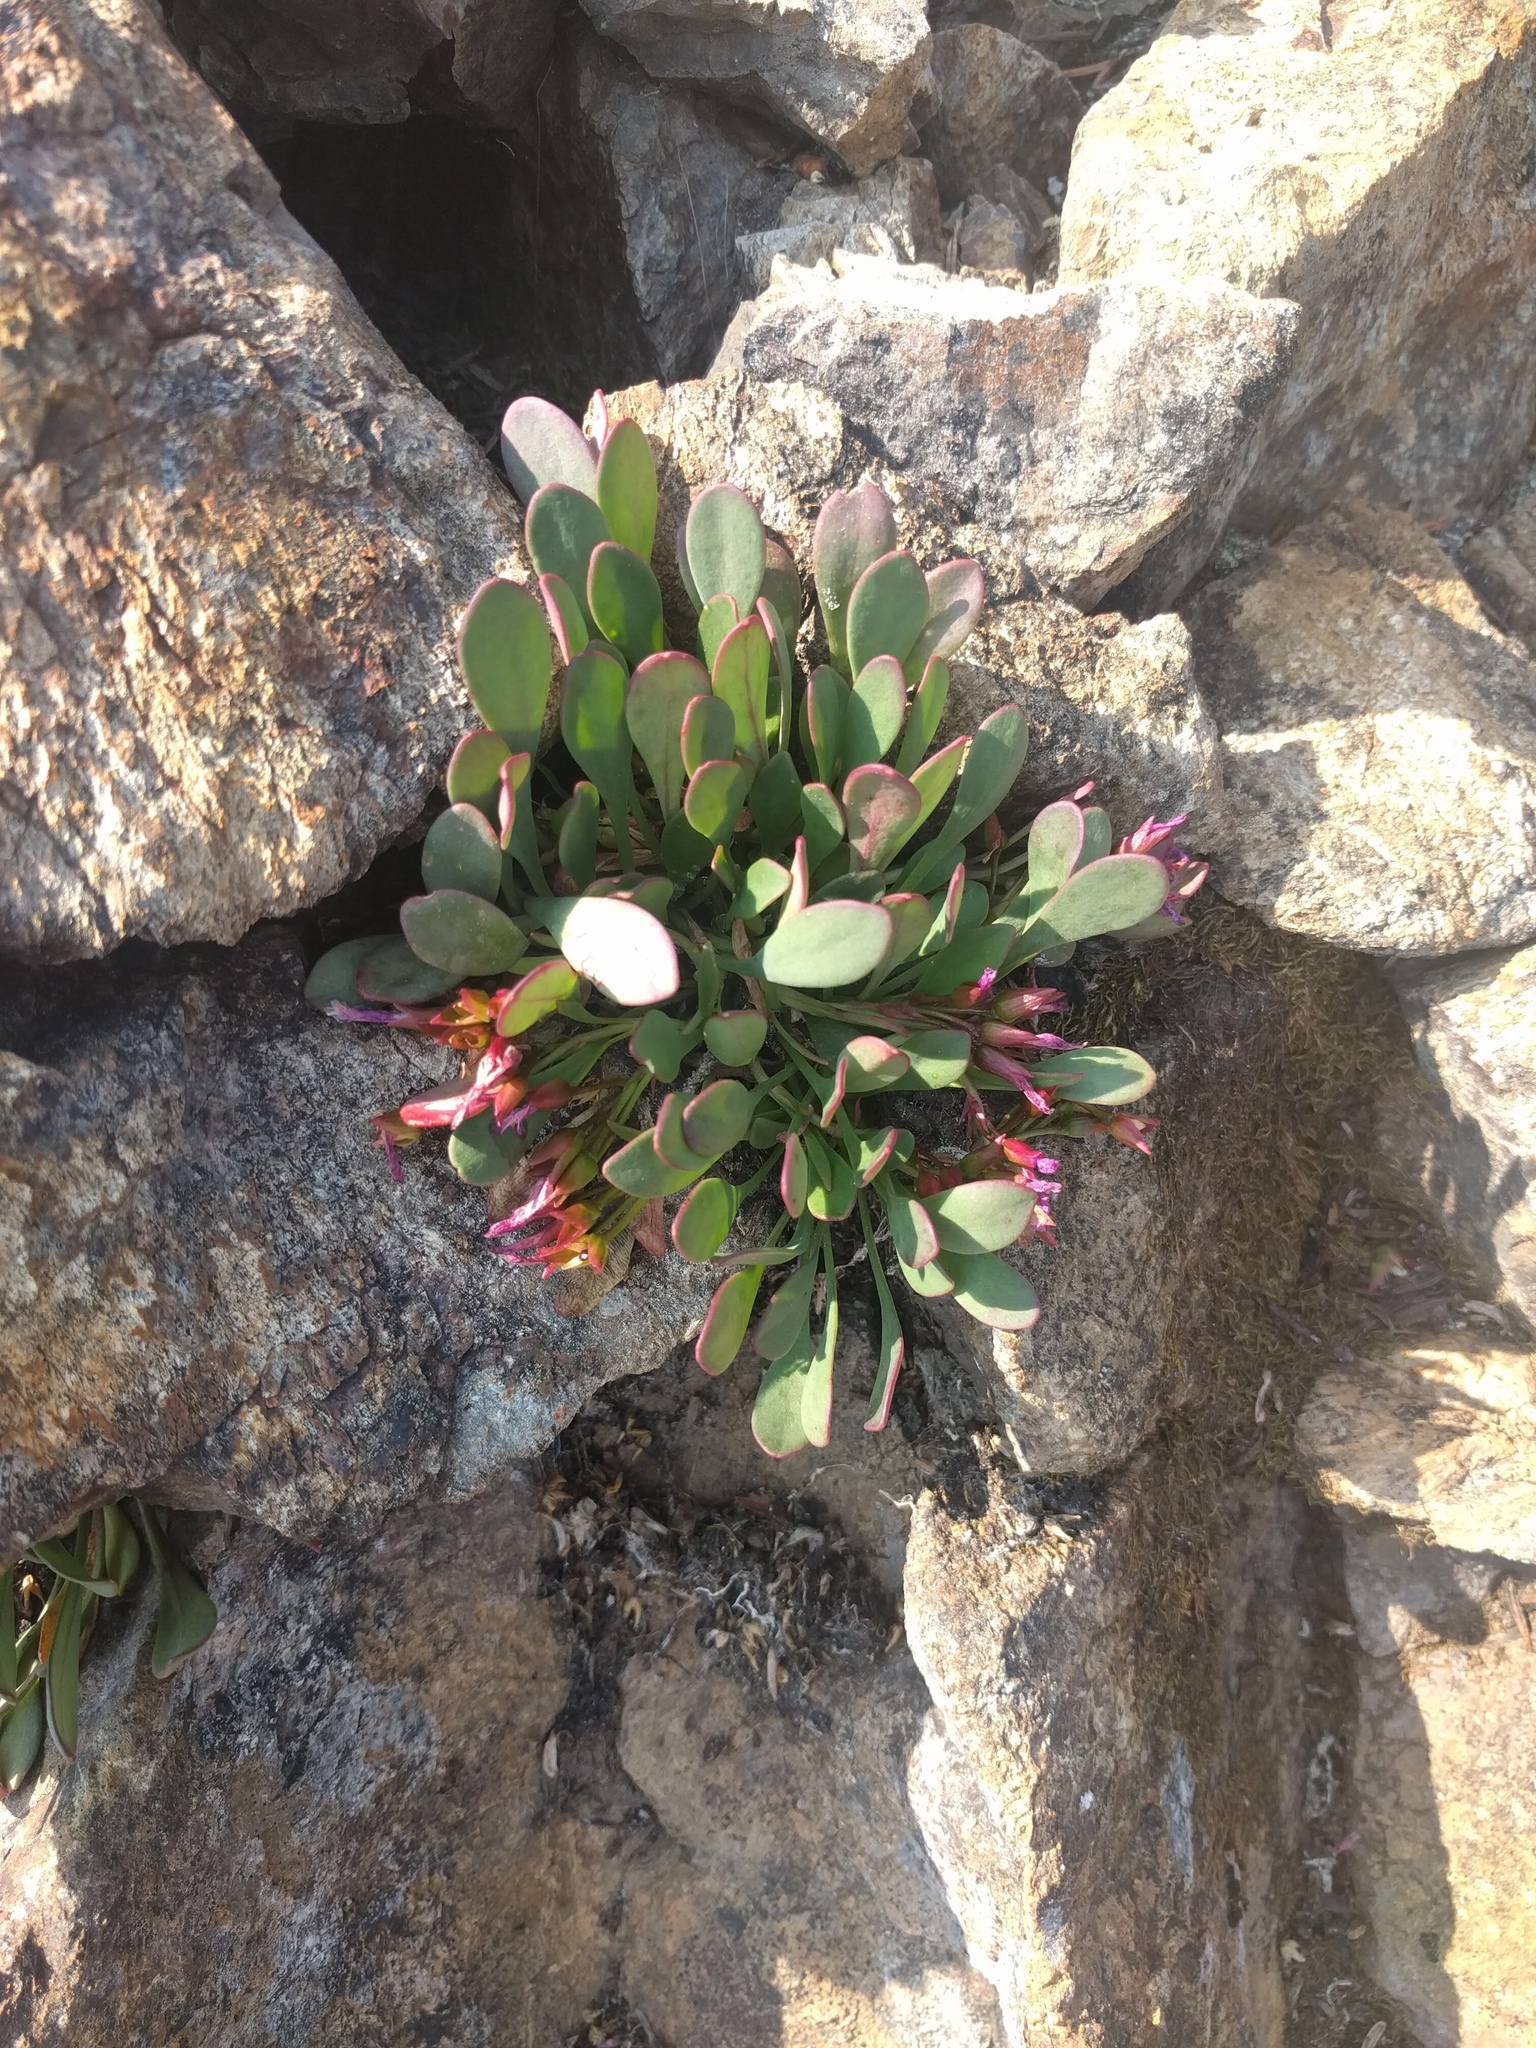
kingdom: Plantae
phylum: Tracheophyta
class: Magnoliopsida
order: Caryophyllales
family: Montiaceae
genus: Claytonia
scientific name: Claytonia megarhiza
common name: Alpine spring beauty
